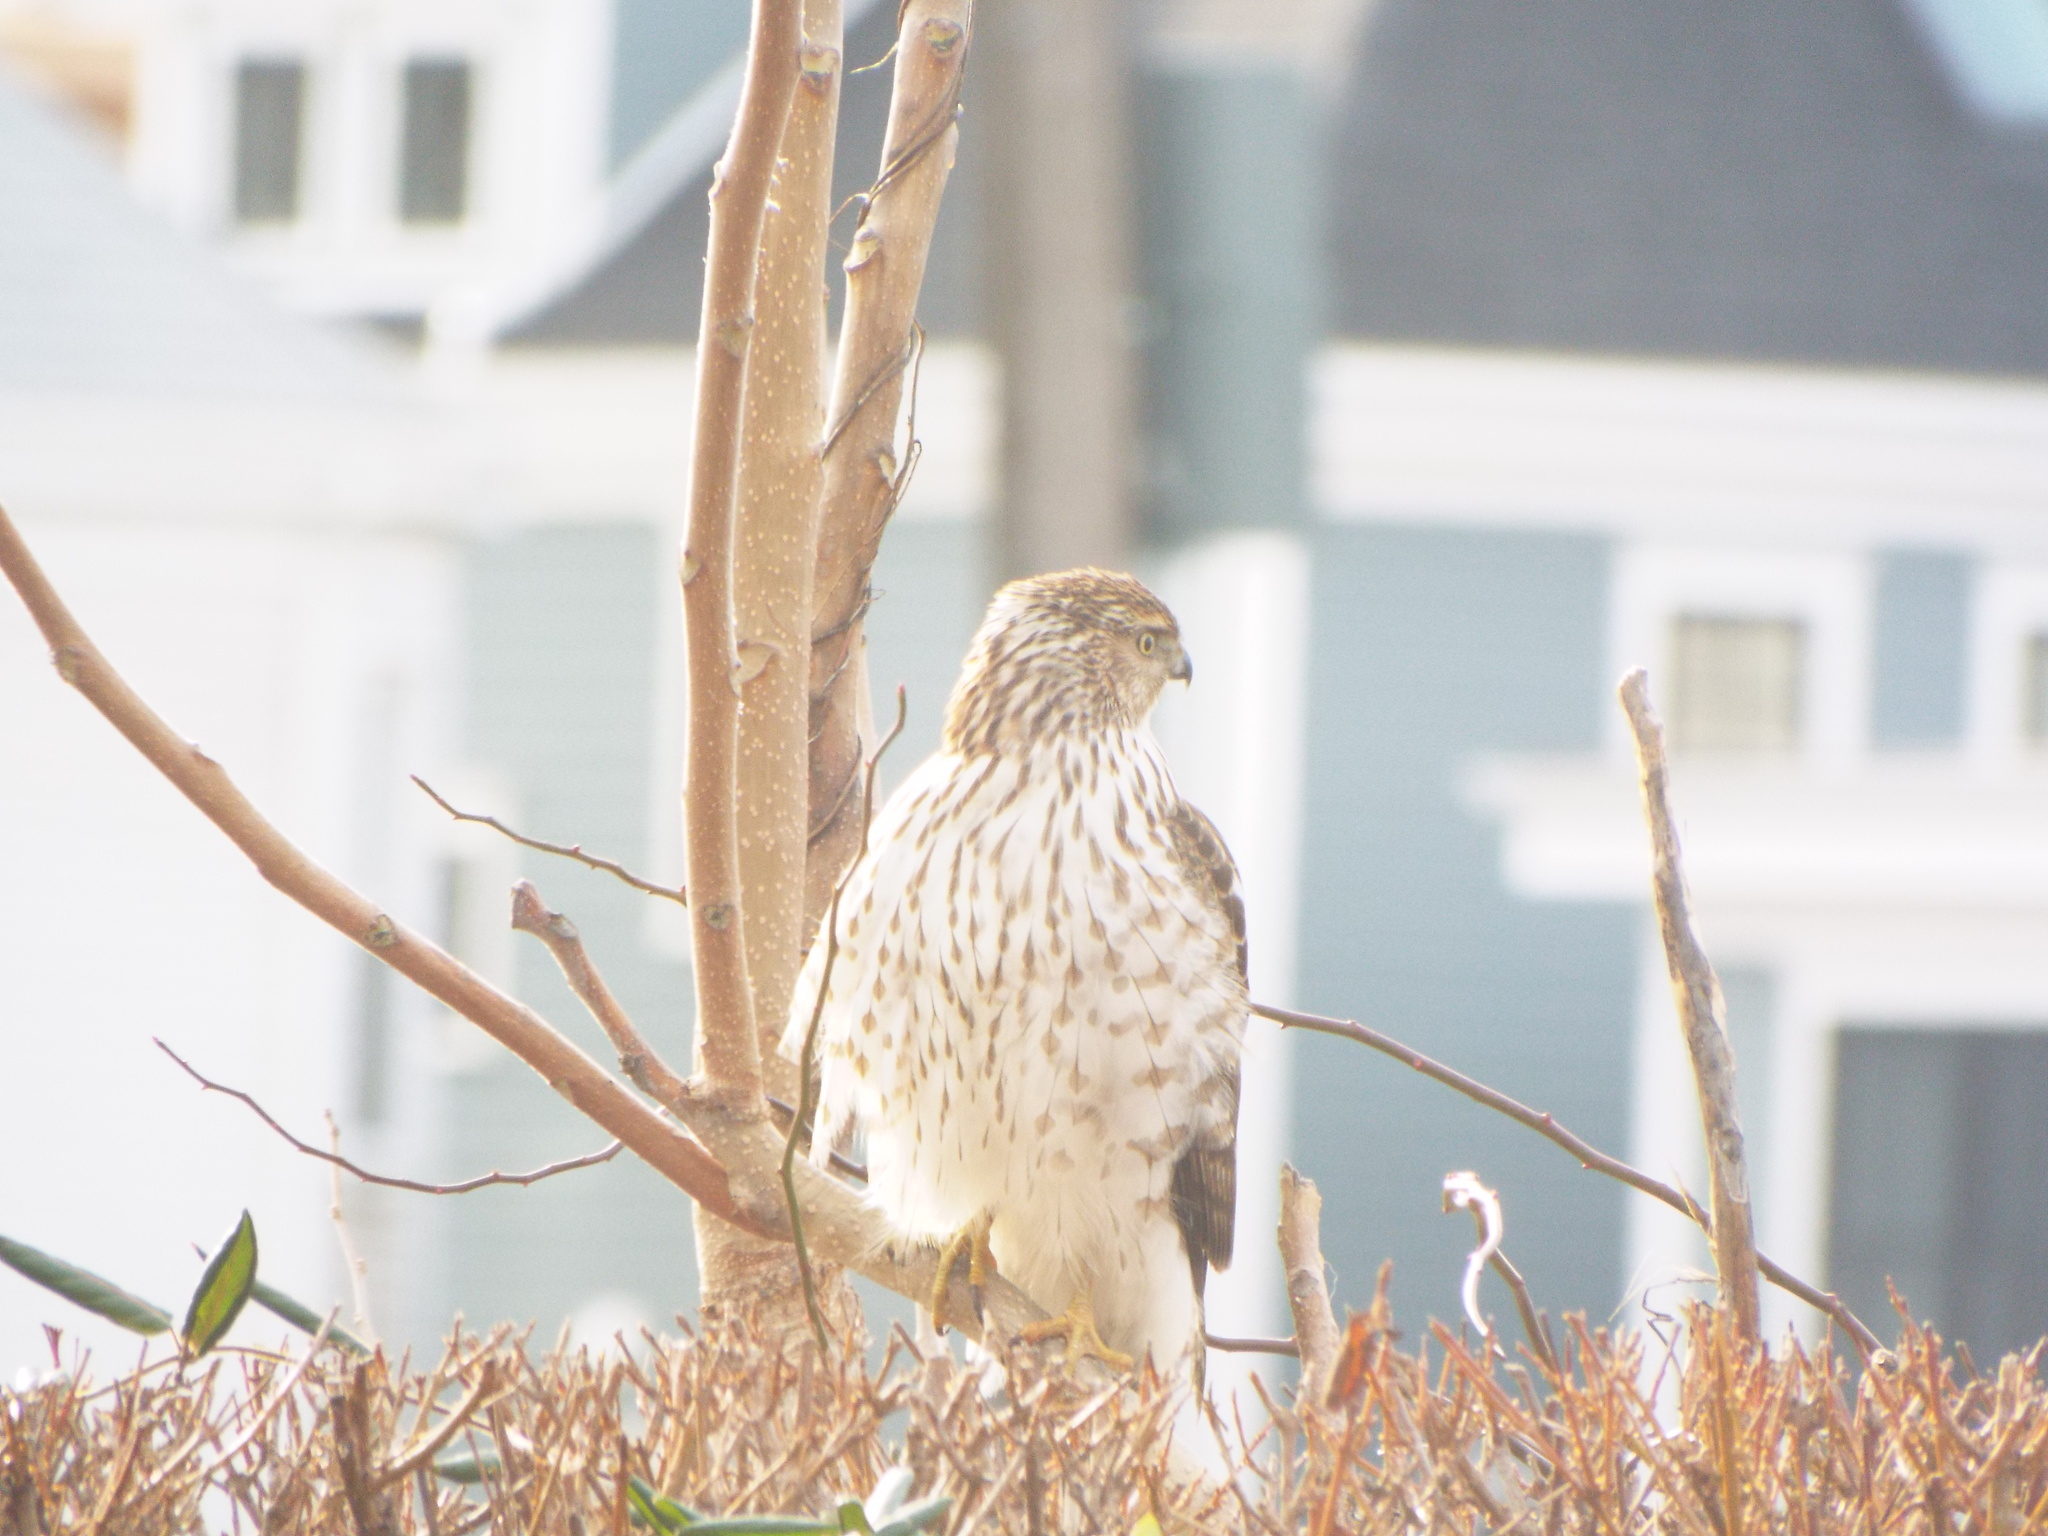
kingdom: Animalia
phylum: Chordata
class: Aves
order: Accipitriformes
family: Accipitridae
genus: Accipiter
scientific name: Accipiter cooperii
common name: Cooper's hawk
